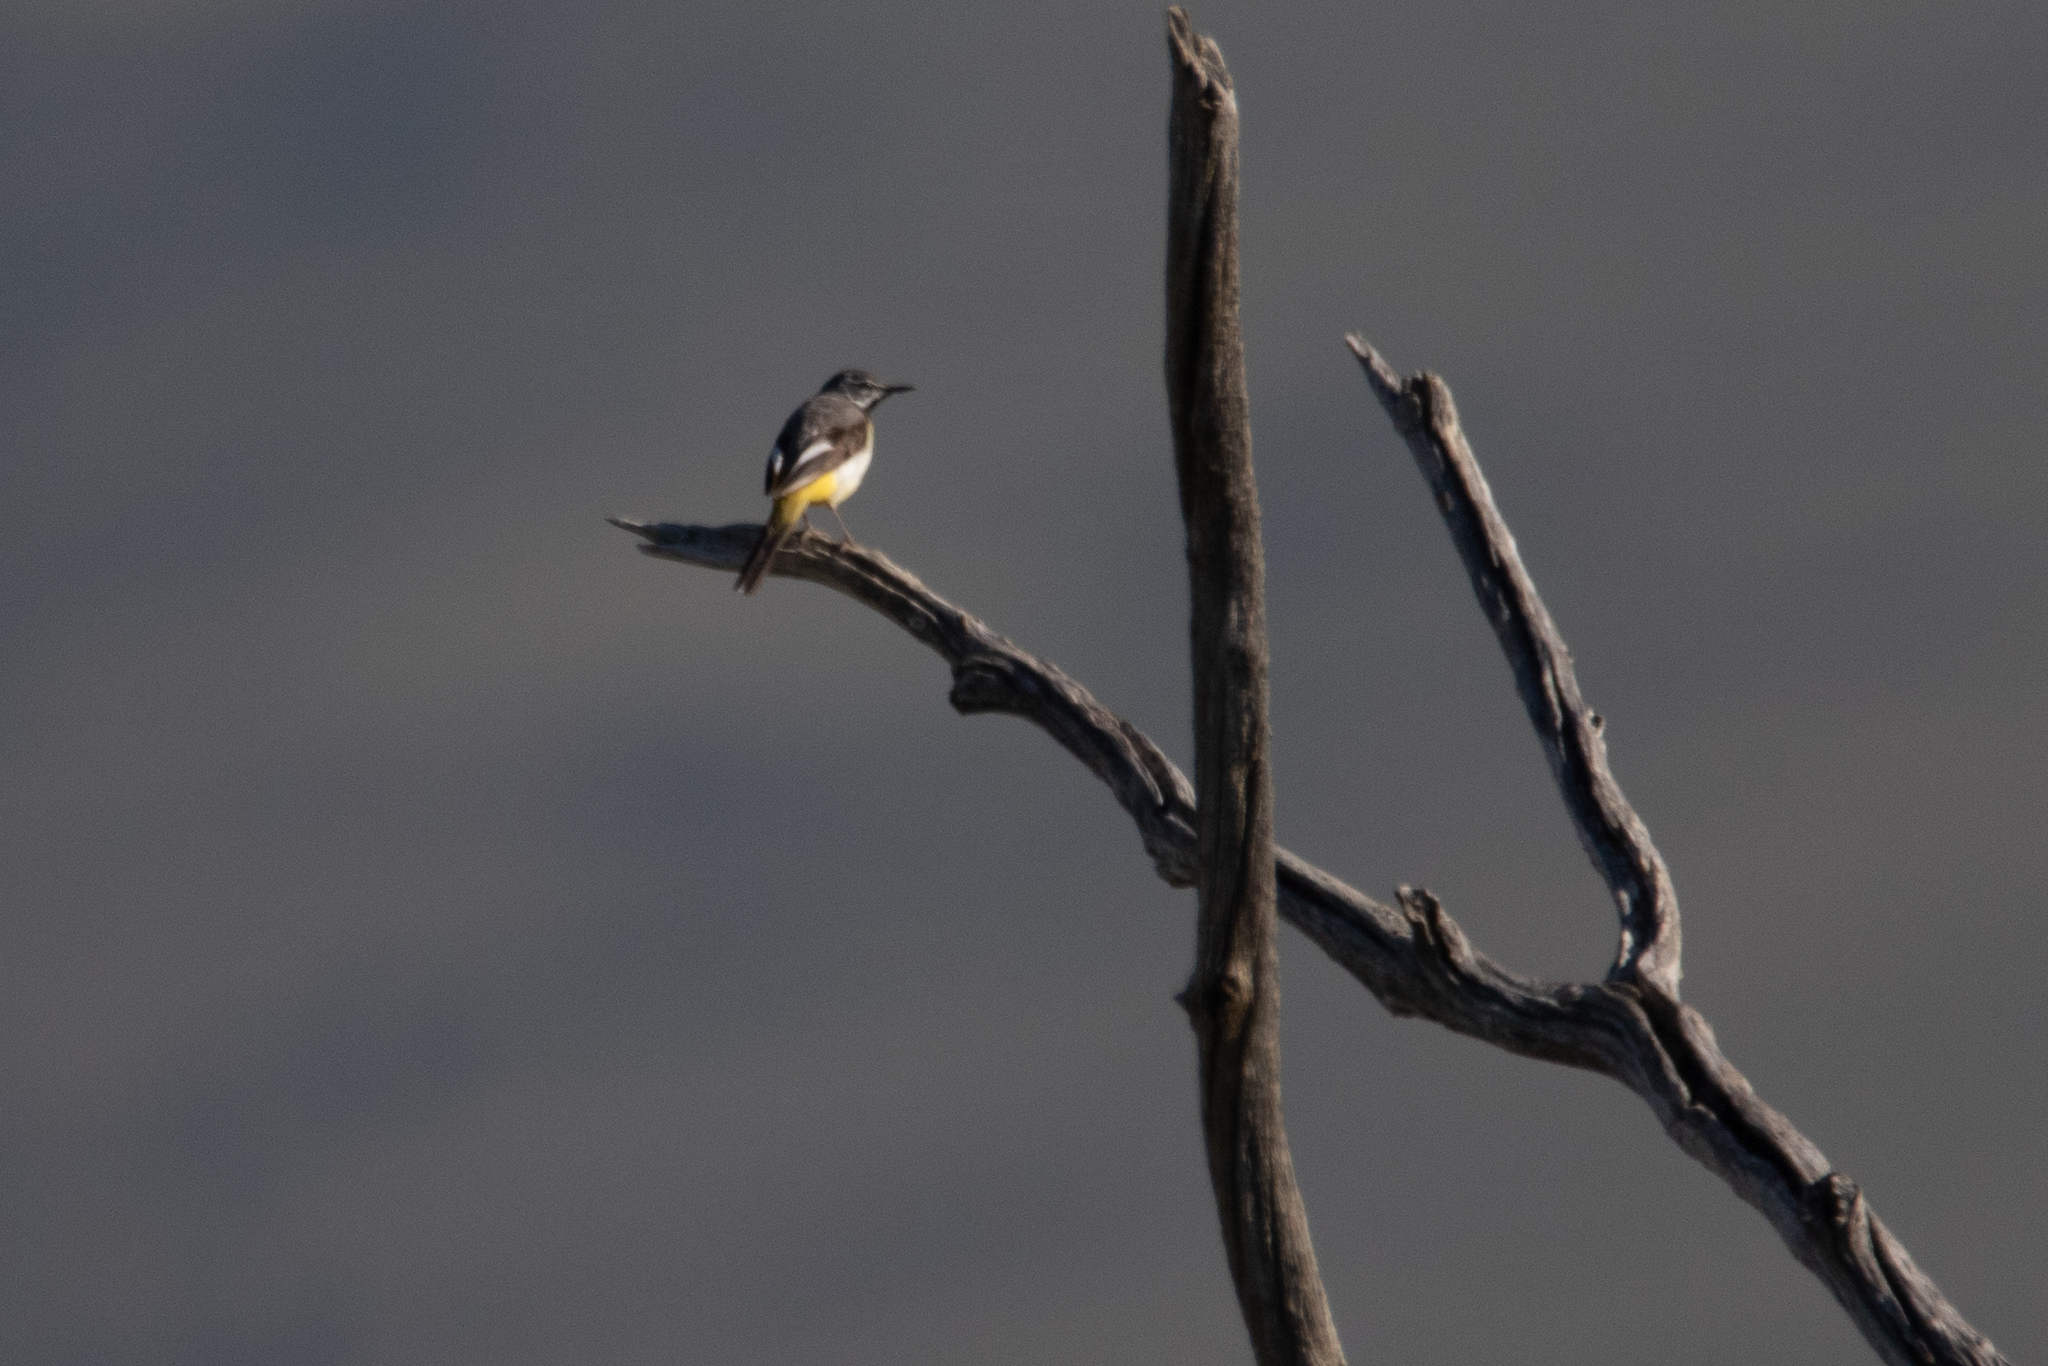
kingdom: Animalia
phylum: Chordata
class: Aves
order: Passeriformes
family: Motacillidae
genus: Motacilla
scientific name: Motacilla cinerea
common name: Grey wagtail
